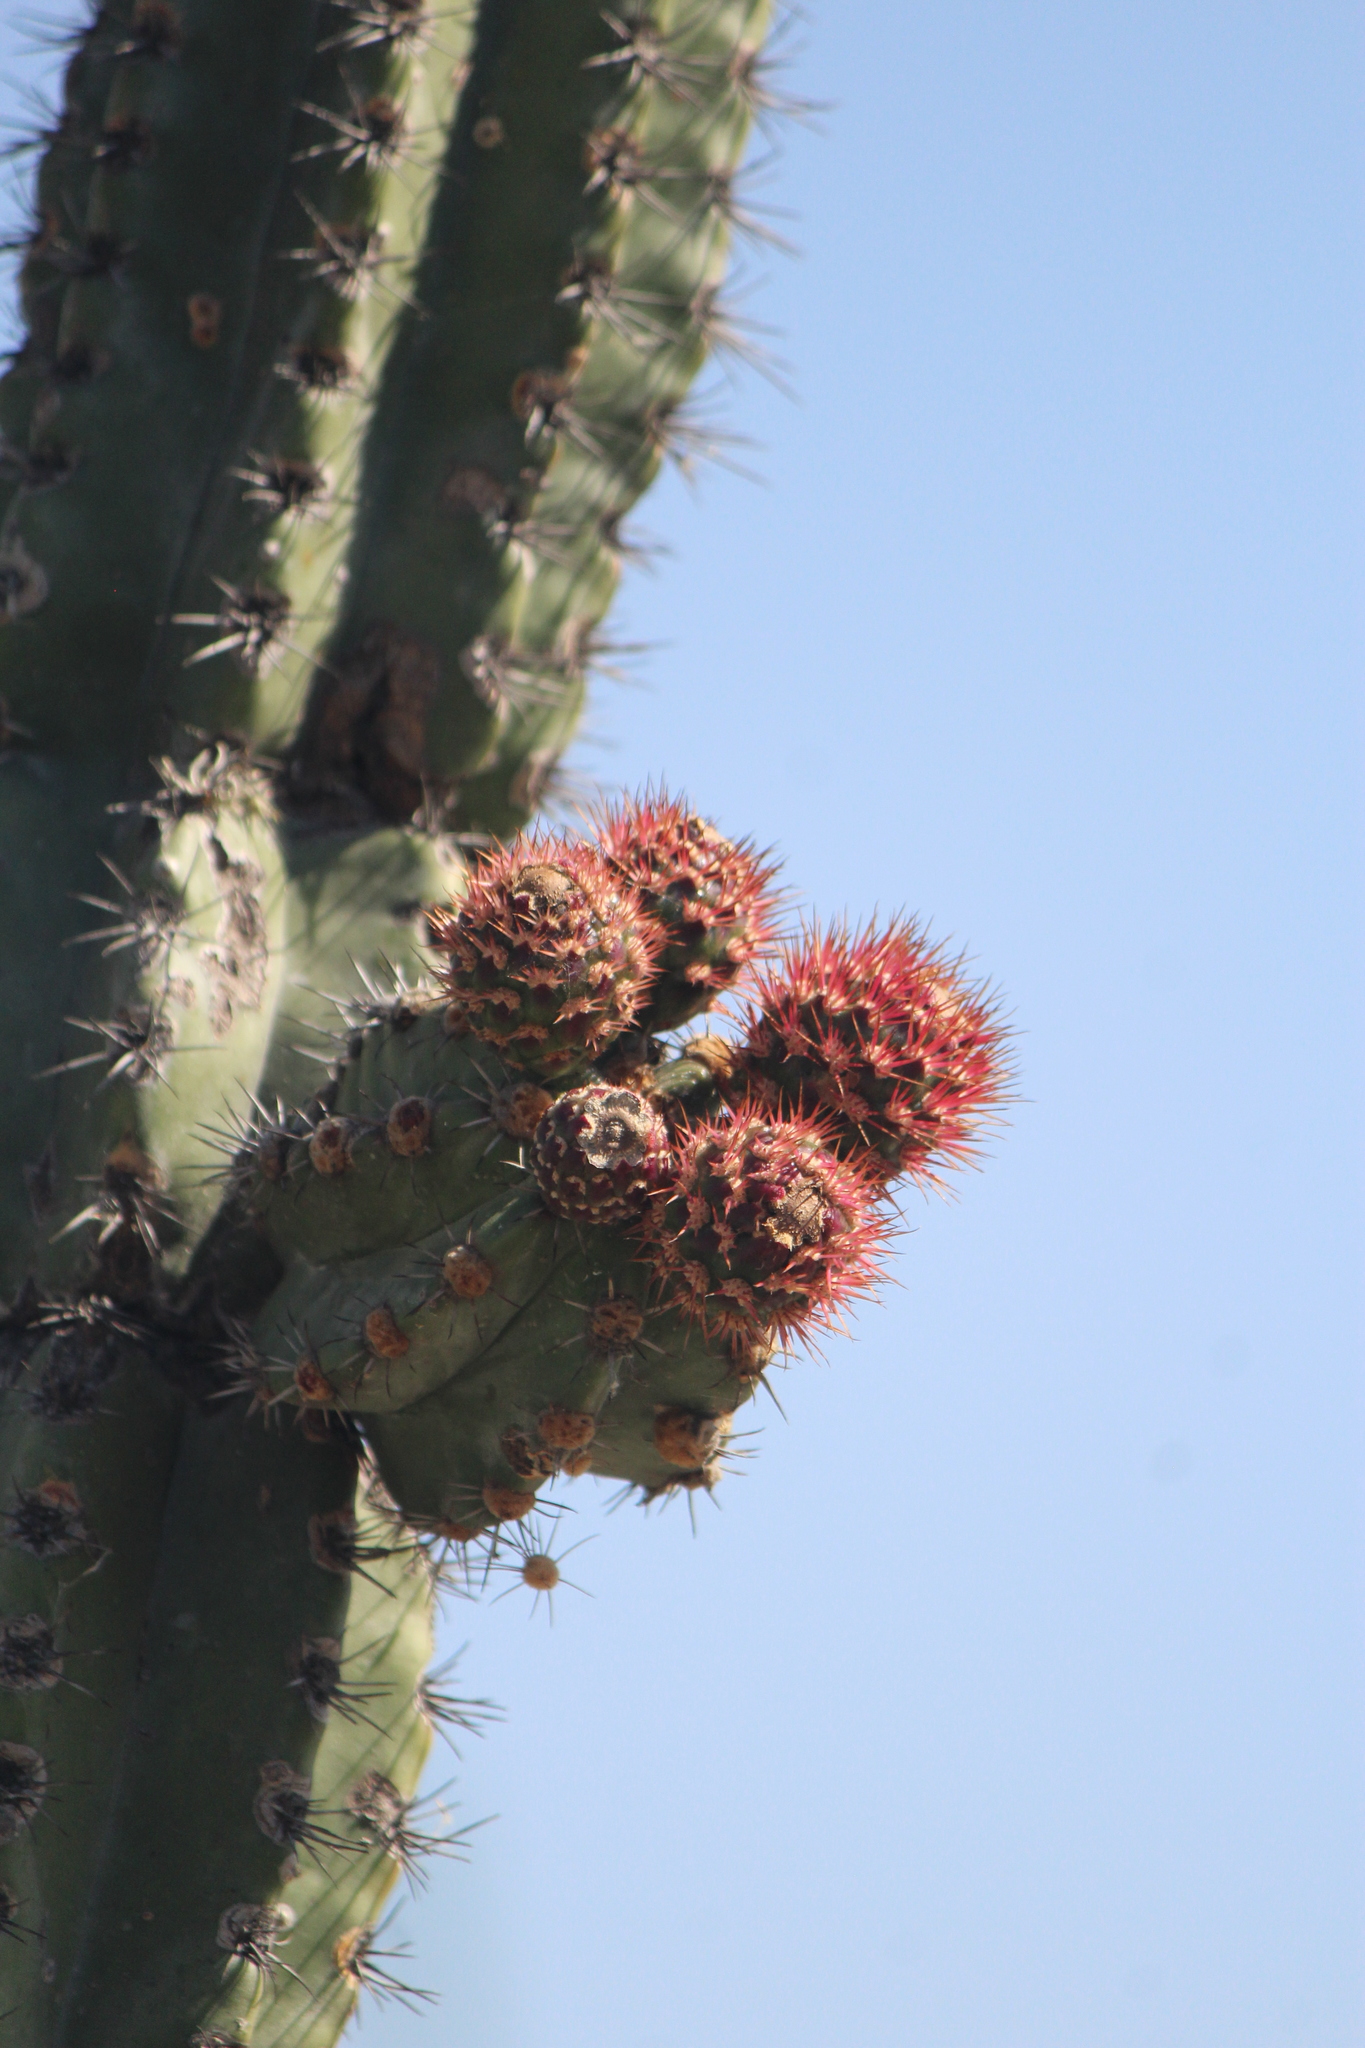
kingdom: Plantae
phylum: Tracheophyta
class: Magnoliopsida
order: Caryophyllales
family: Cactaceae
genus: Stenocereus
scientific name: Stenocereus queretaroensis
